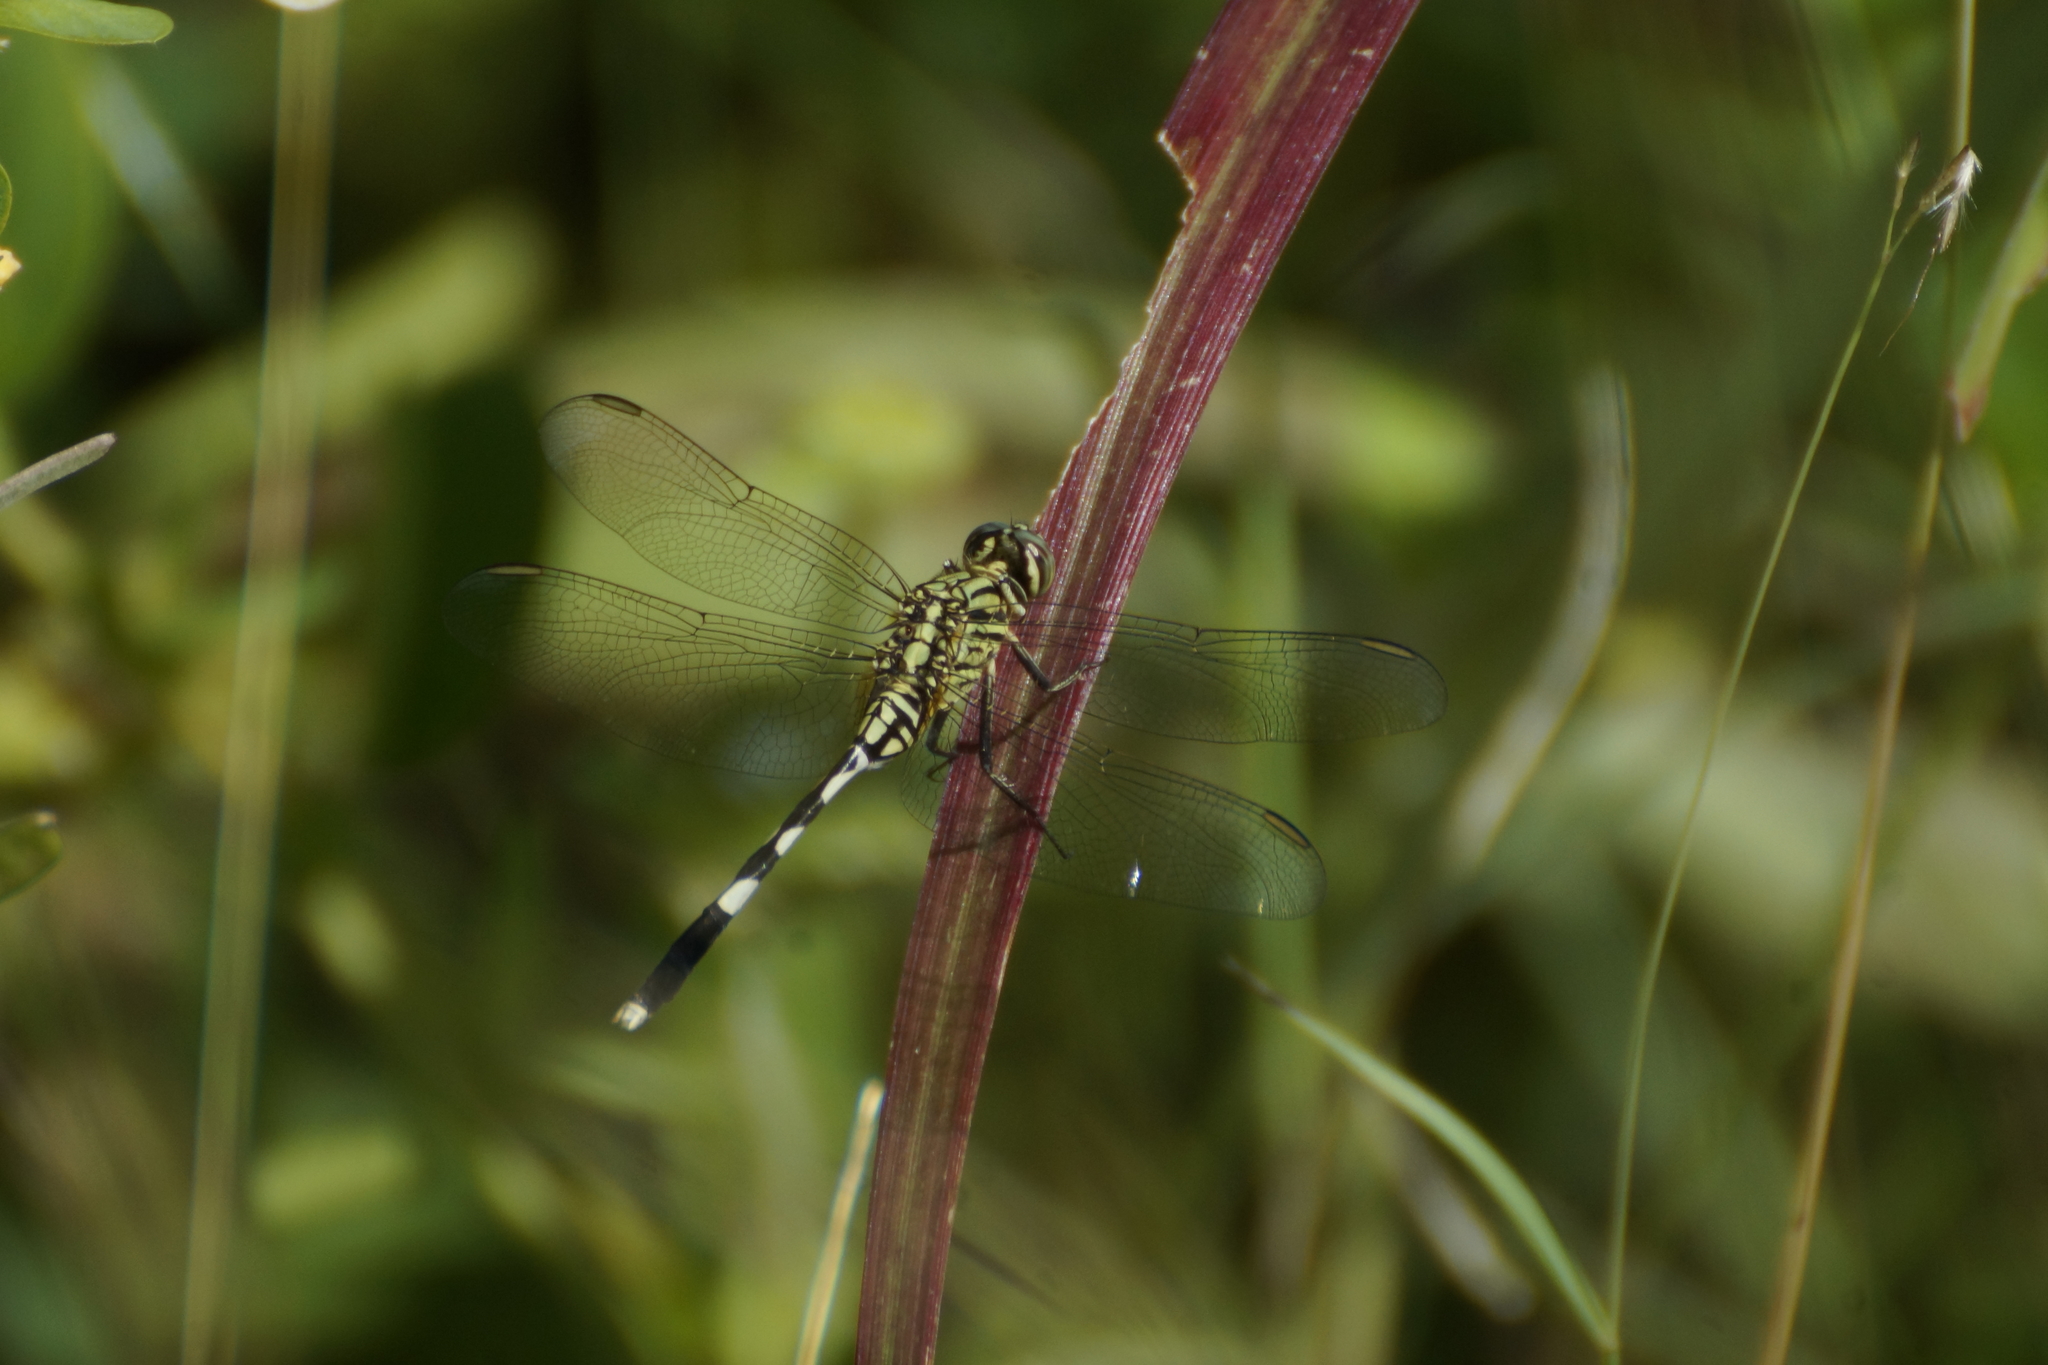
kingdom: Animalia
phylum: Arthropoda
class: Insecta
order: Odonata
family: Libellulidae
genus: Orthetrum
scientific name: Orthetrum sabina
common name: Slender skimmer
